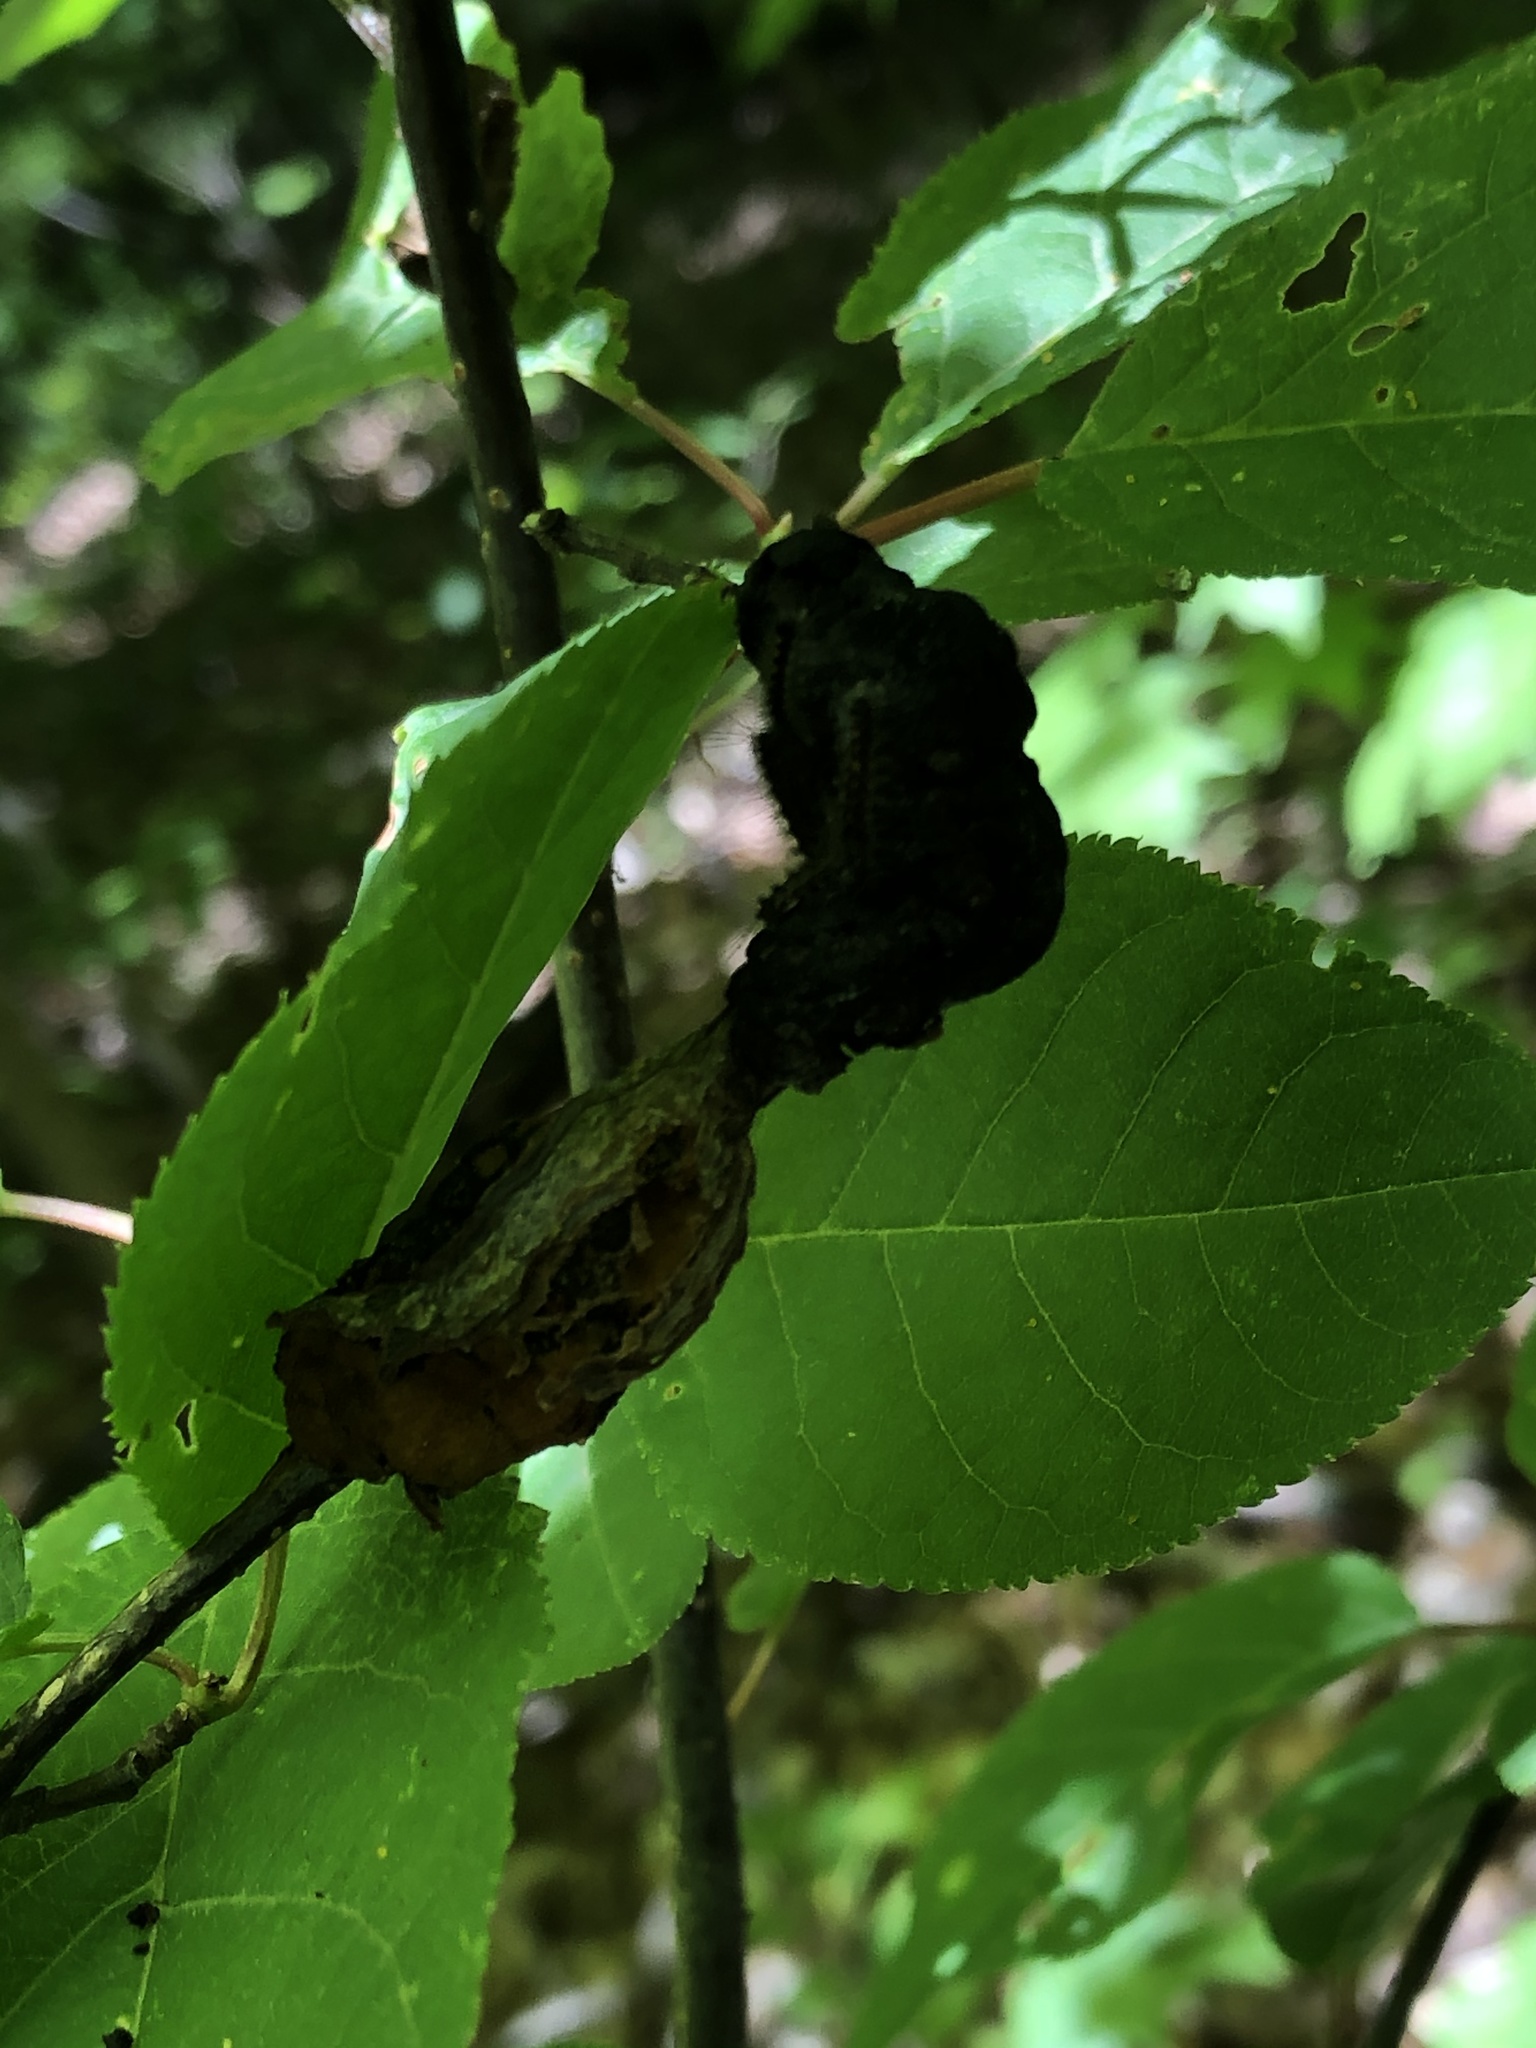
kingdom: Fungi
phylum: Ascomycota
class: Dothideomycetes
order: Venturiales
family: Venturiaceae
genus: Apiosporina
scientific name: Apiosporina morbosa
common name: Black knot
